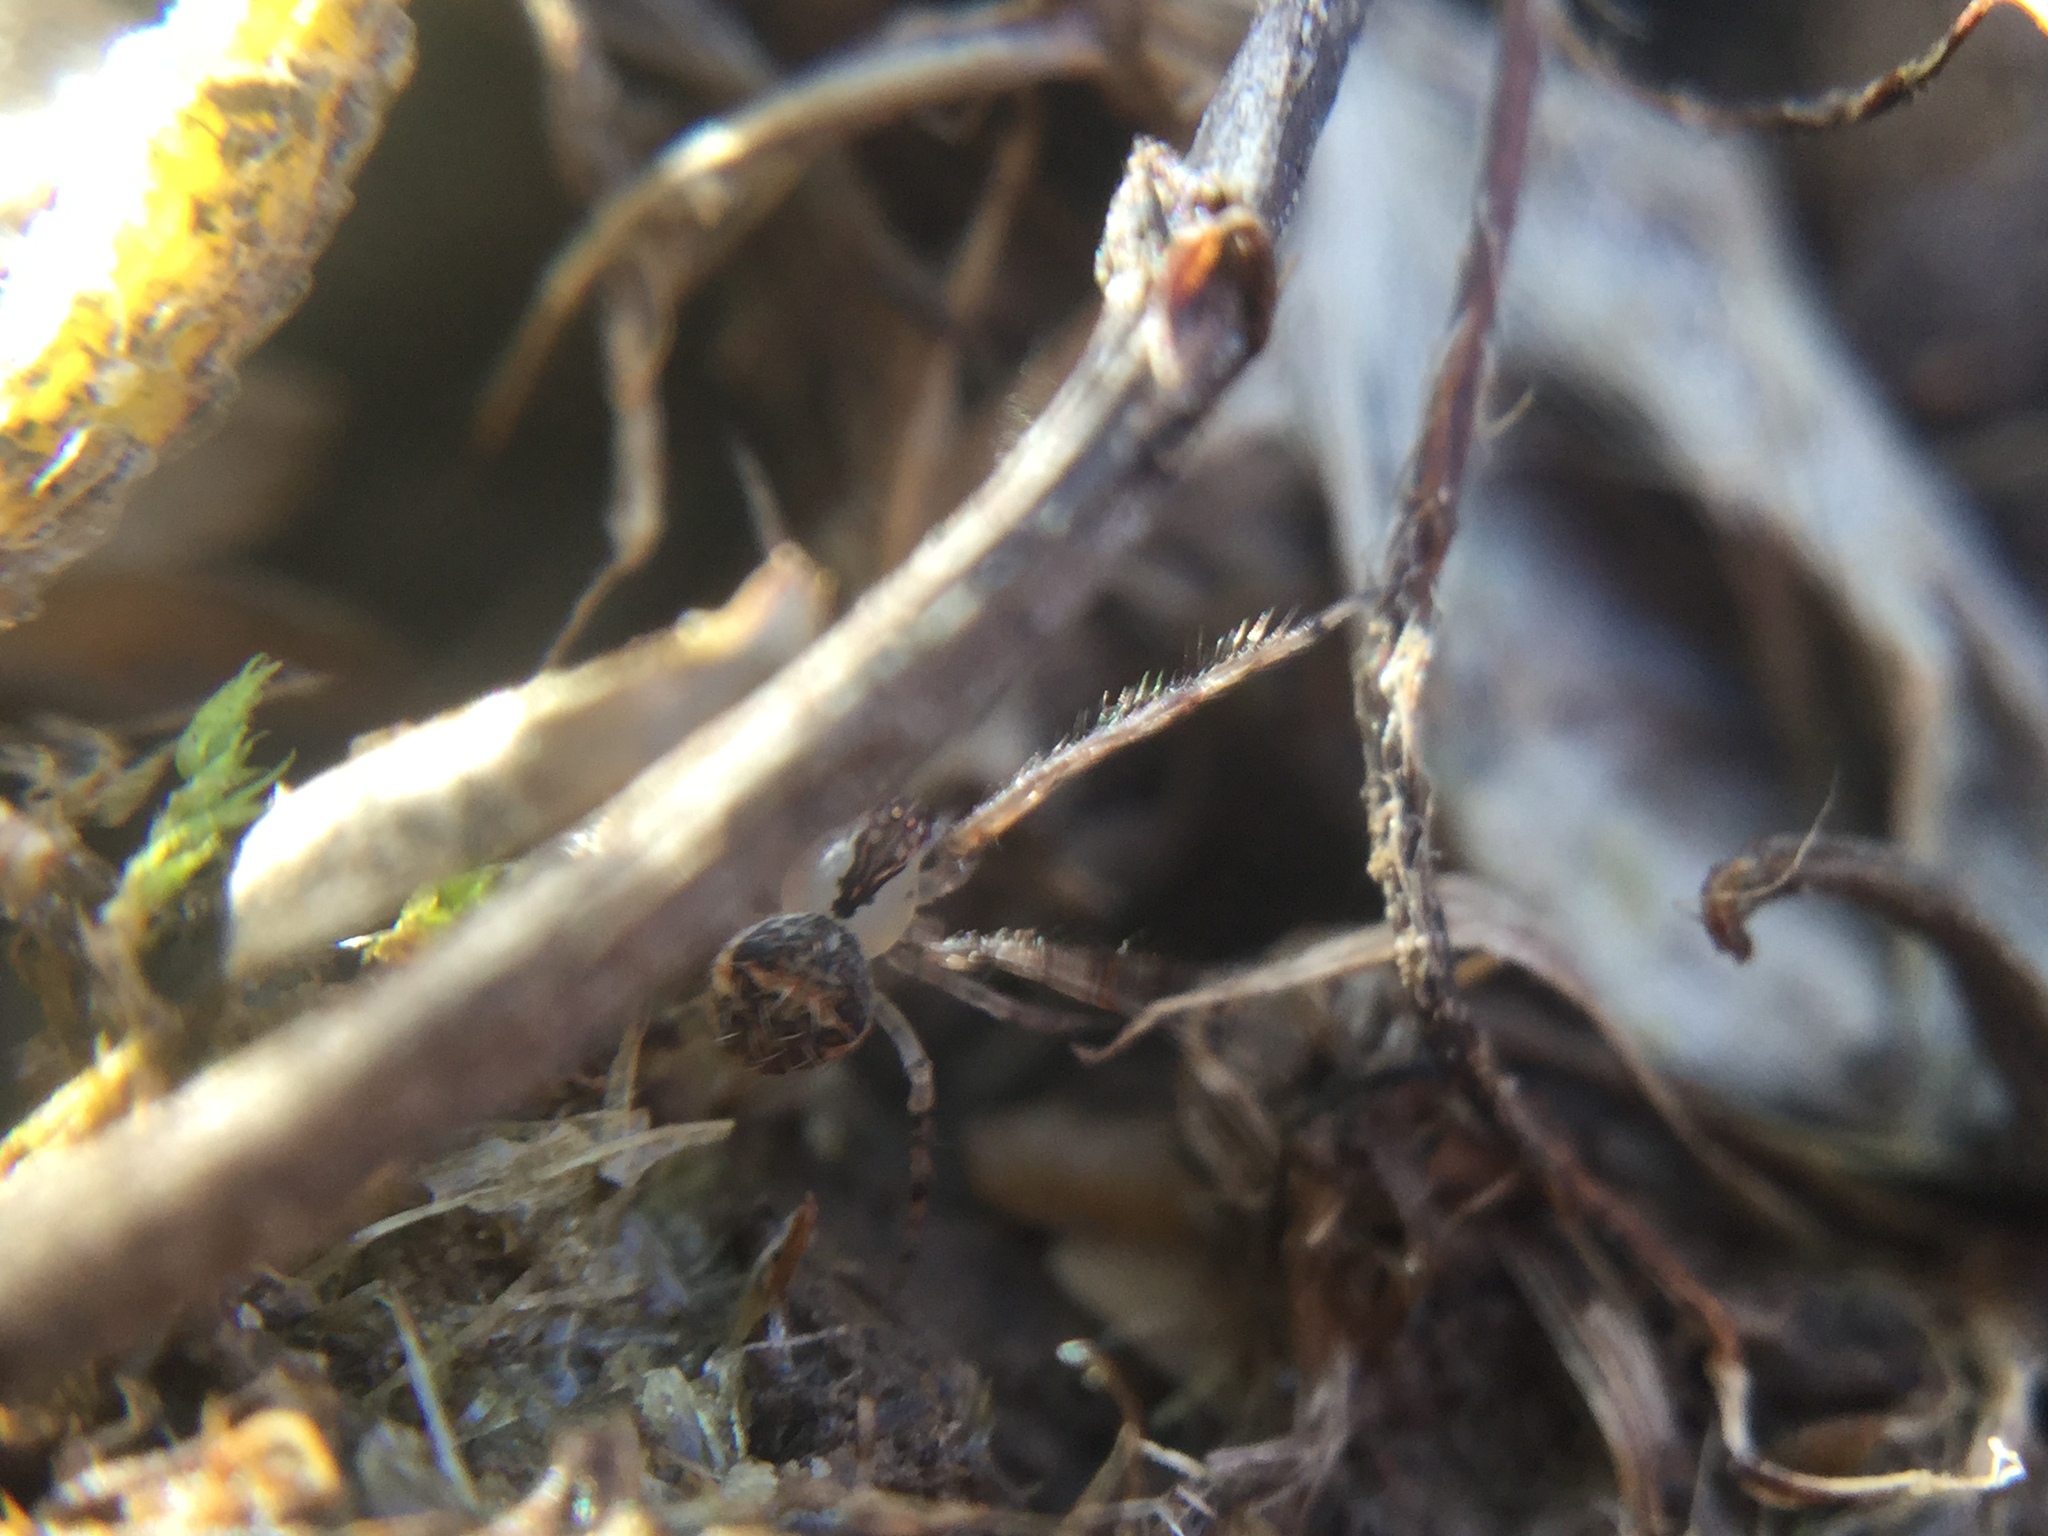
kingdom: Animalia
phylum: Arthropoda
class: Arachnida
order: Araneae
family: Mimetidae
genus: Mimetus
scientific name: Mimetus puritanus
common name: Common pirate spider
